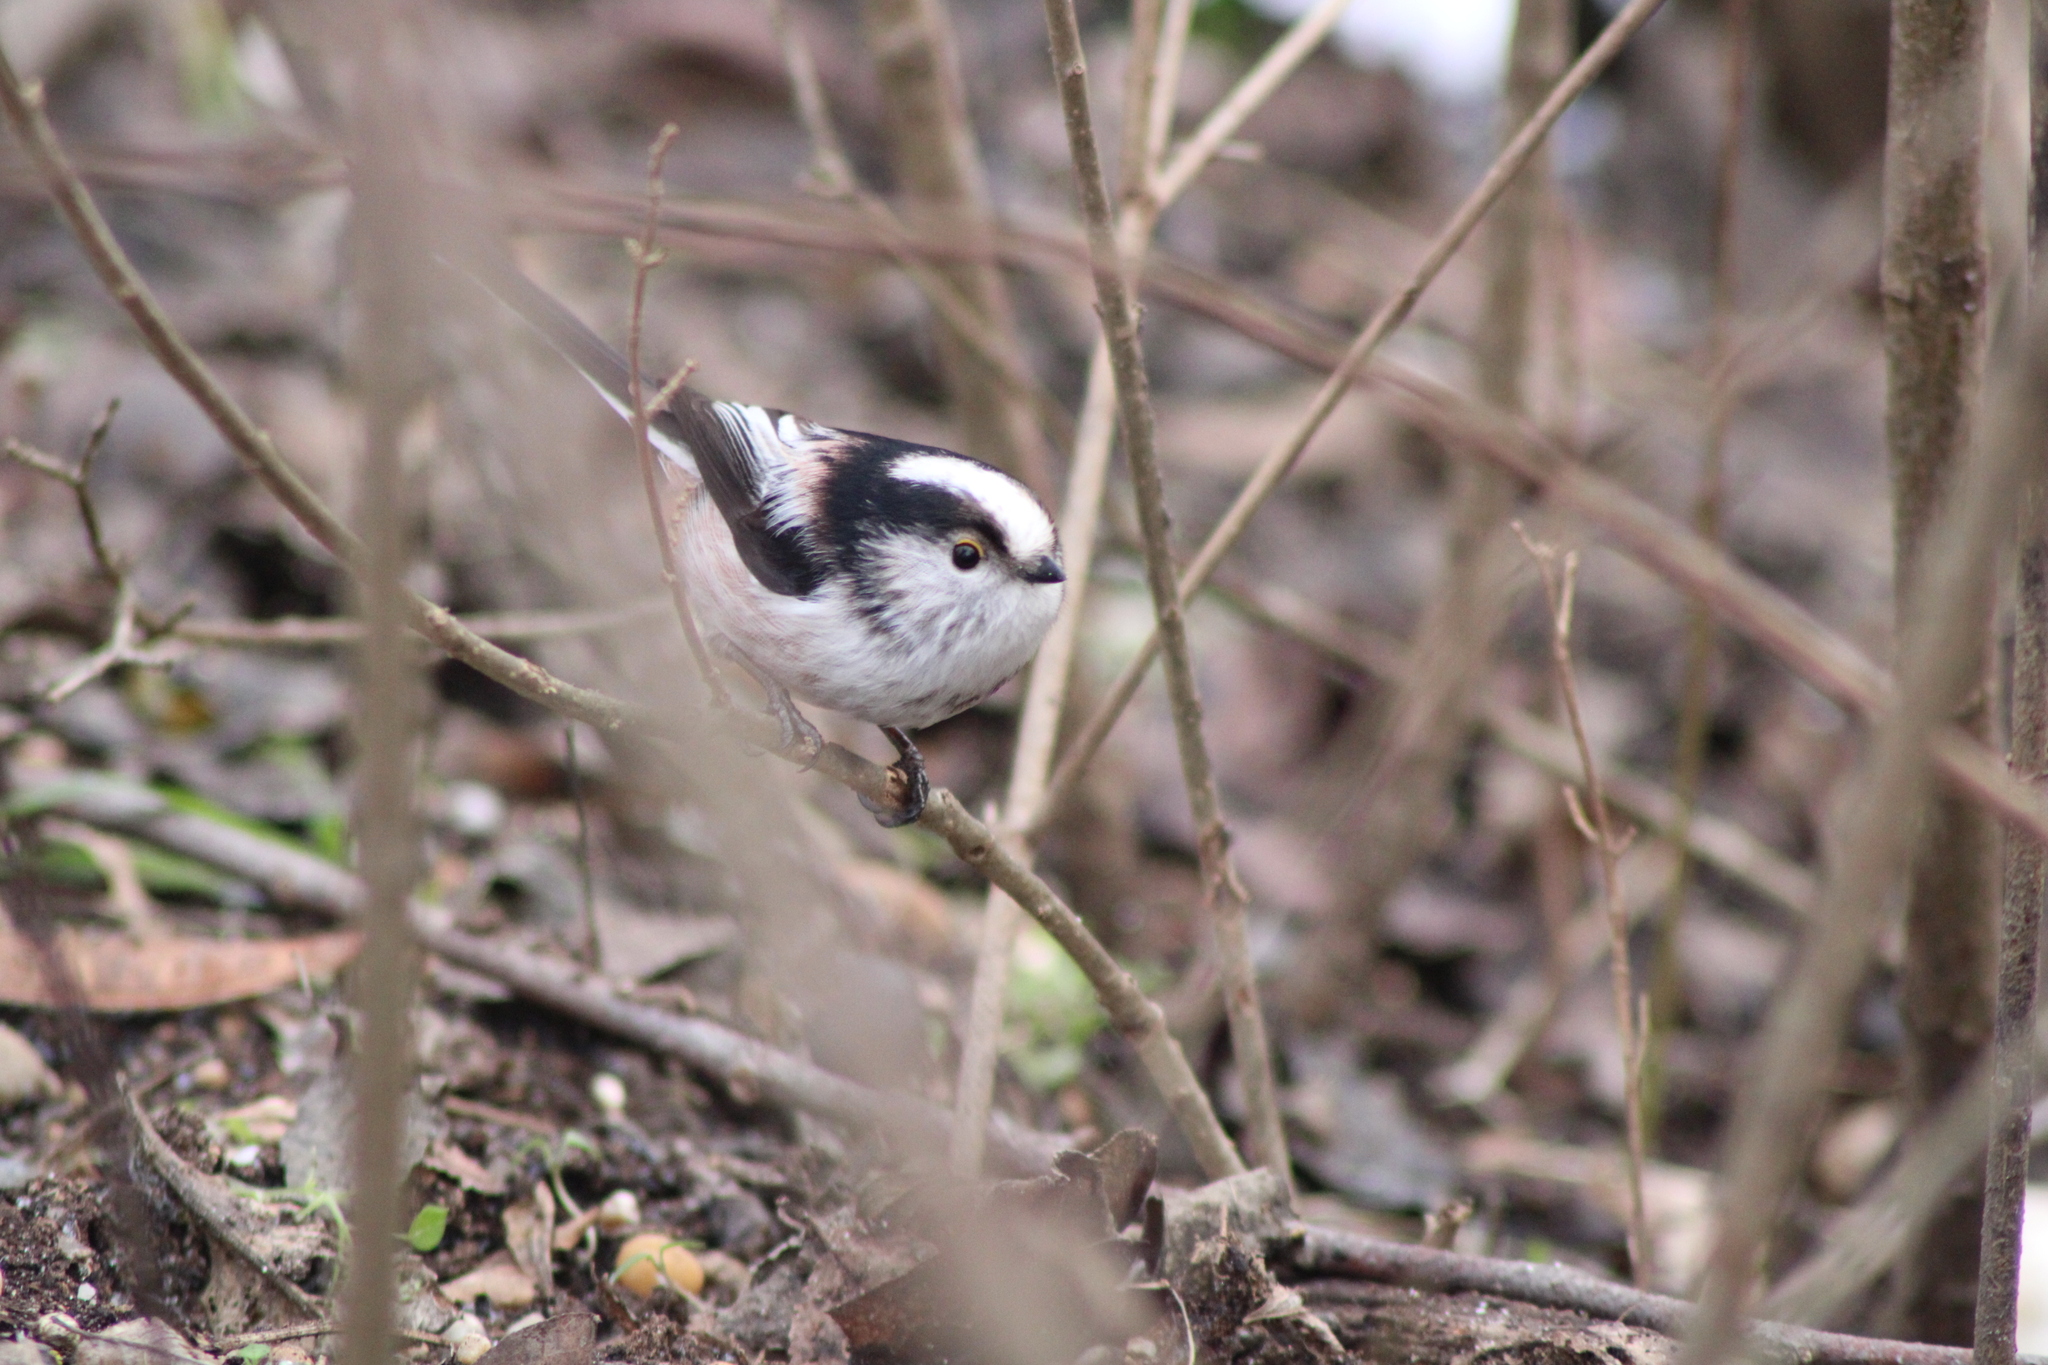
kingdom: Animalia
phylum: Chordata
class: Aves
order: Passeriformes
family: Aegithalidae
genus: Aegithalos
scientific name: Aegithalos caudatus
